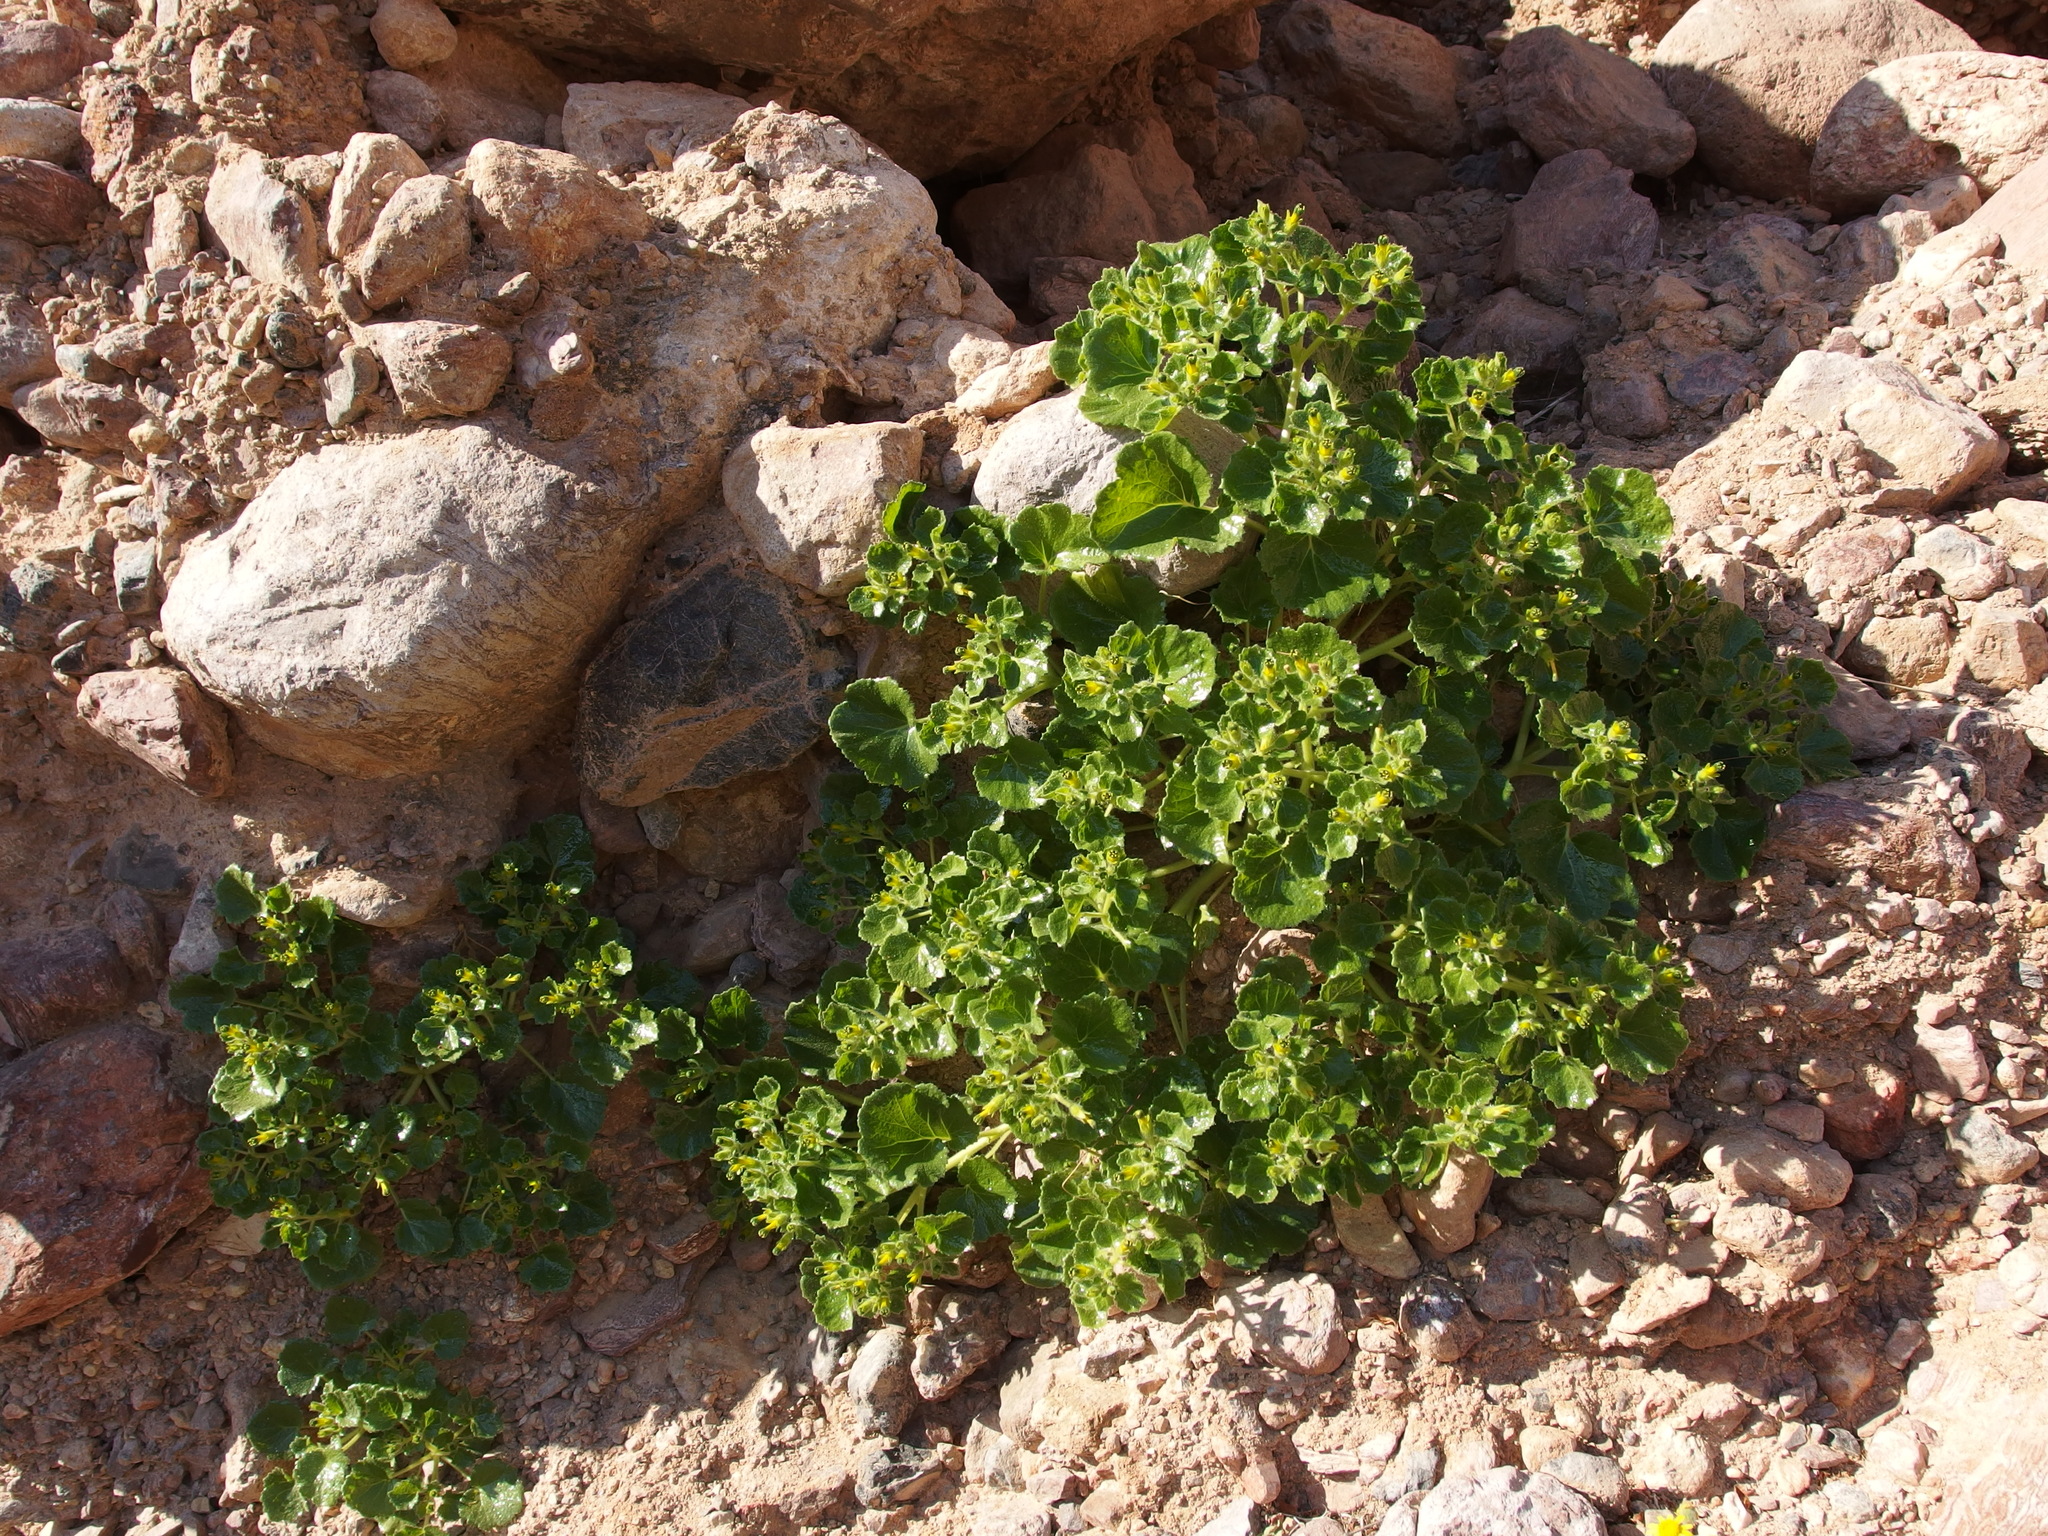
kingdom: Plantae
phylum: Tracheophyta
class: Magnoliopsida
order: Cornales
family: Loasaceae
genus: Eucnide
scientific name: Eucnide rupestris
